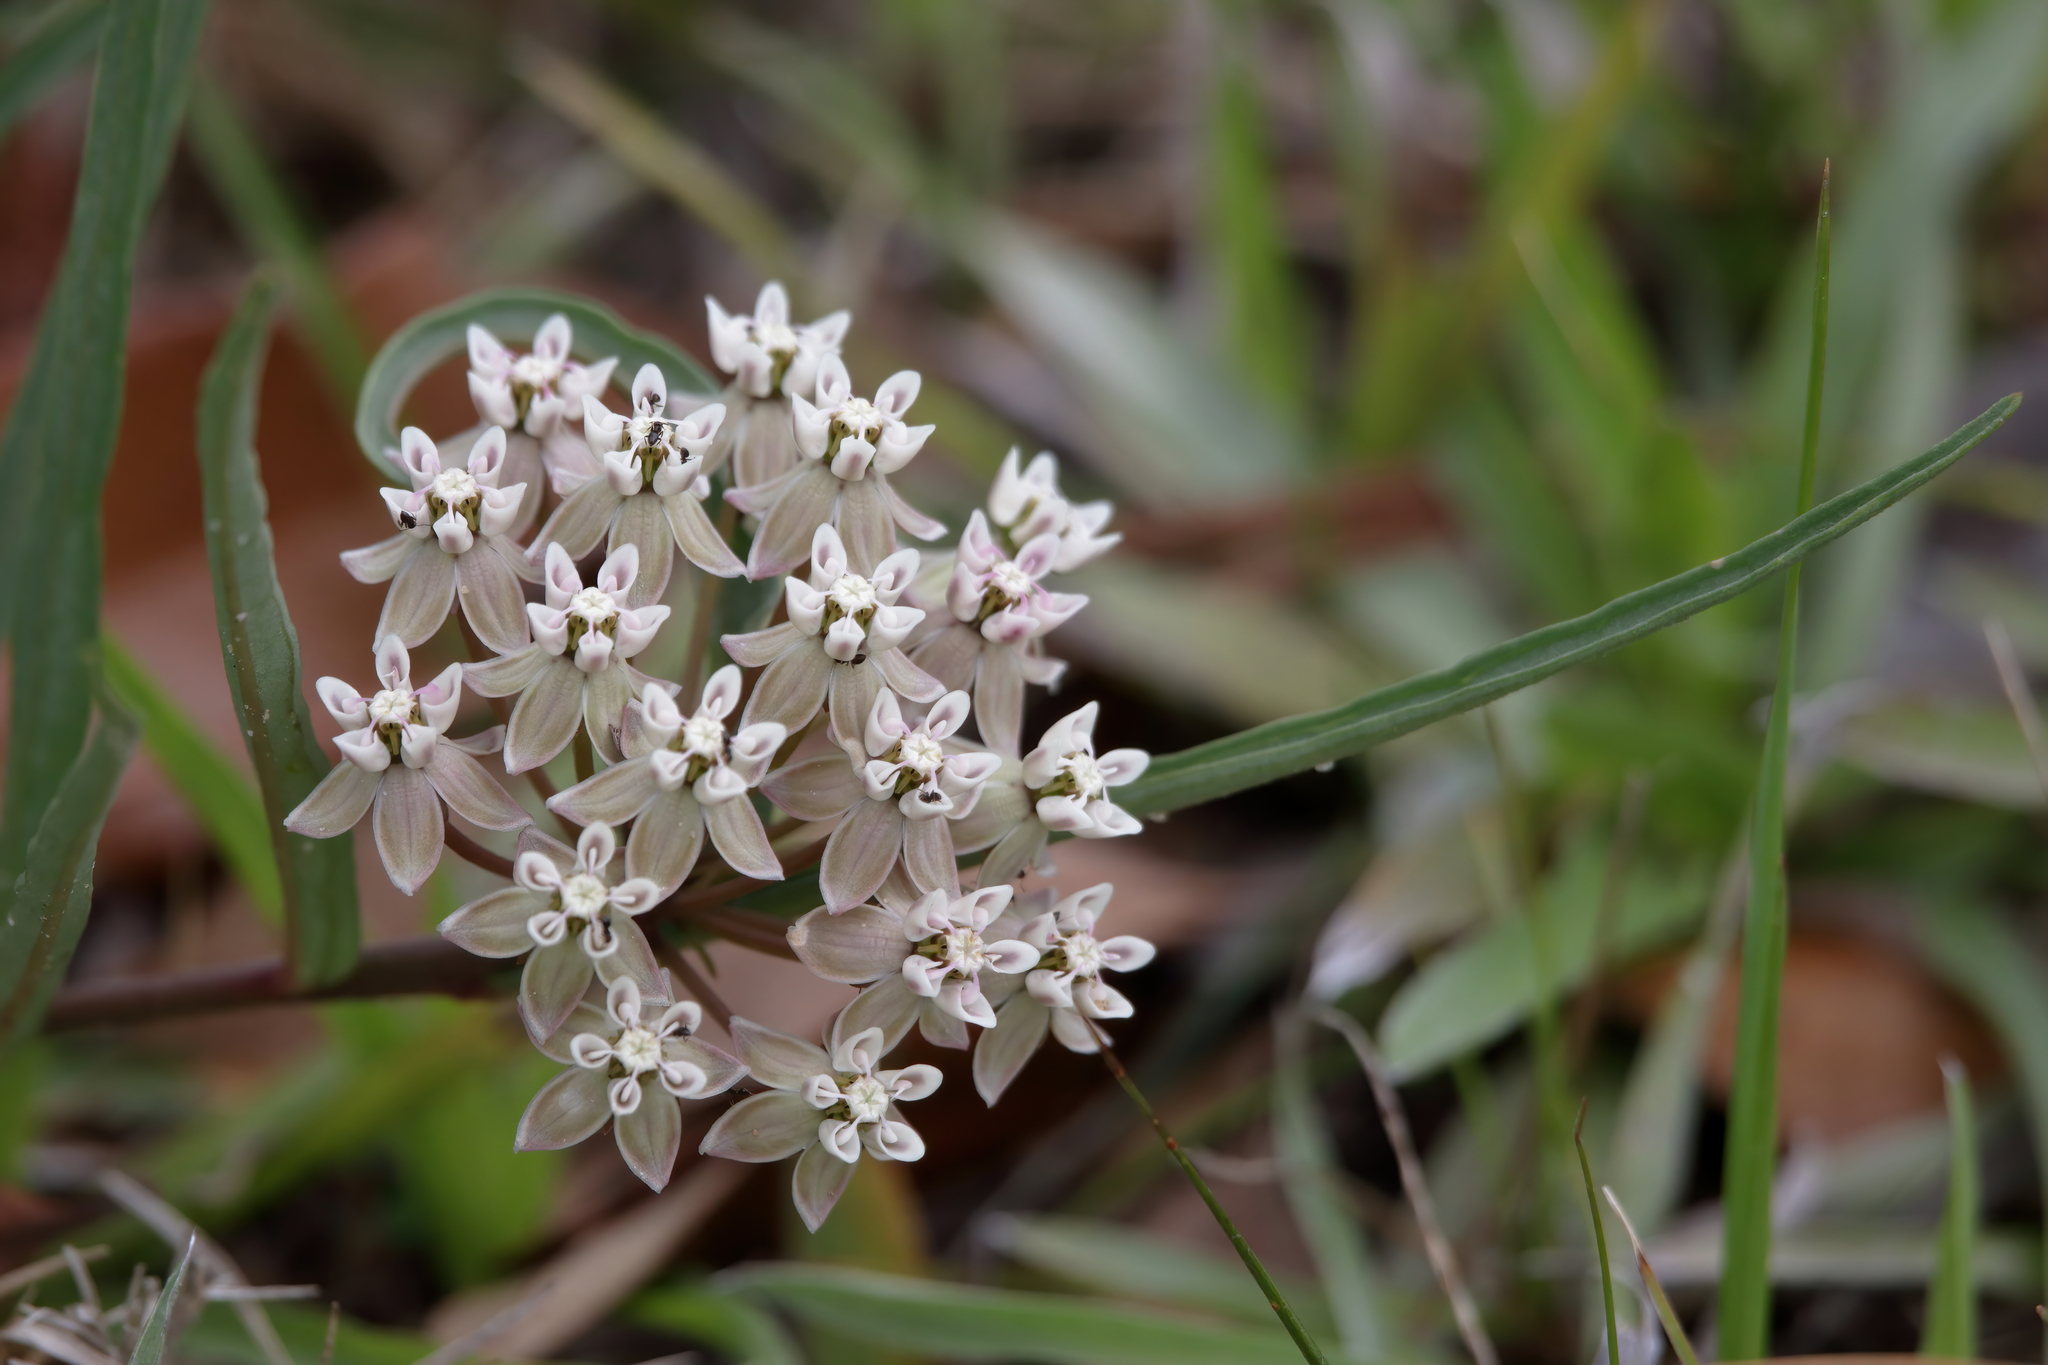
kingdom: Plantae
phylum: Tracheophyta
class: Magnoliopsida
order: Gentianales
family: Apocynaceae
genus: Asclepias
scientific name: Asclepias michauxii
